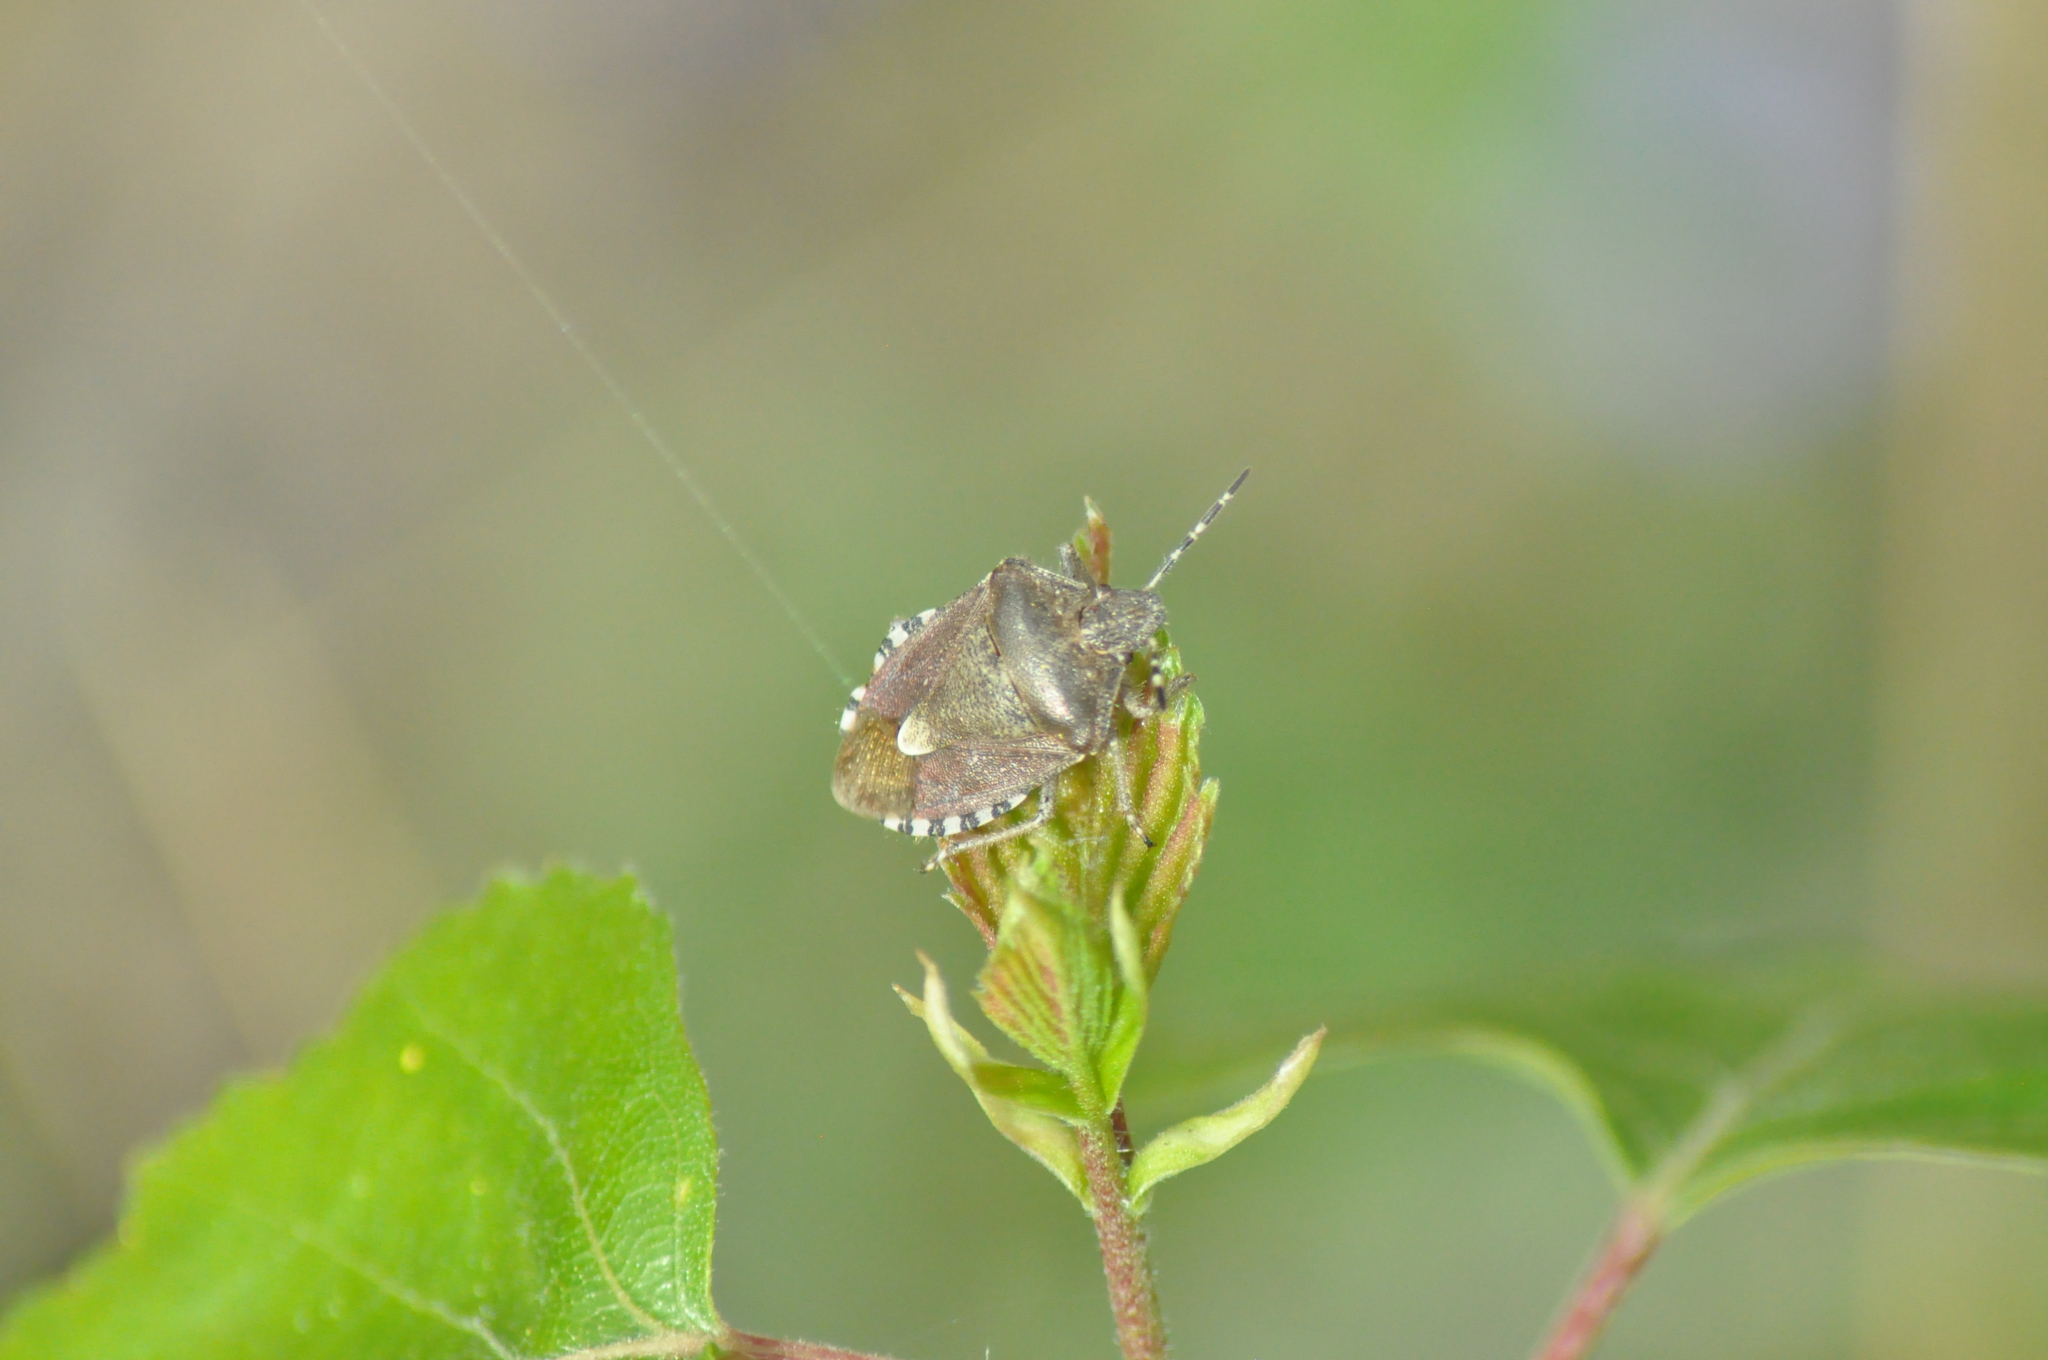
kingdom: Animalia
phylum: Arthropoda
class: Insecta
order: Hemiptera
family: Pentatomidae
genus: Dolycoris
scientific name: Dolycoris baccarum
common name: Sloe bug
